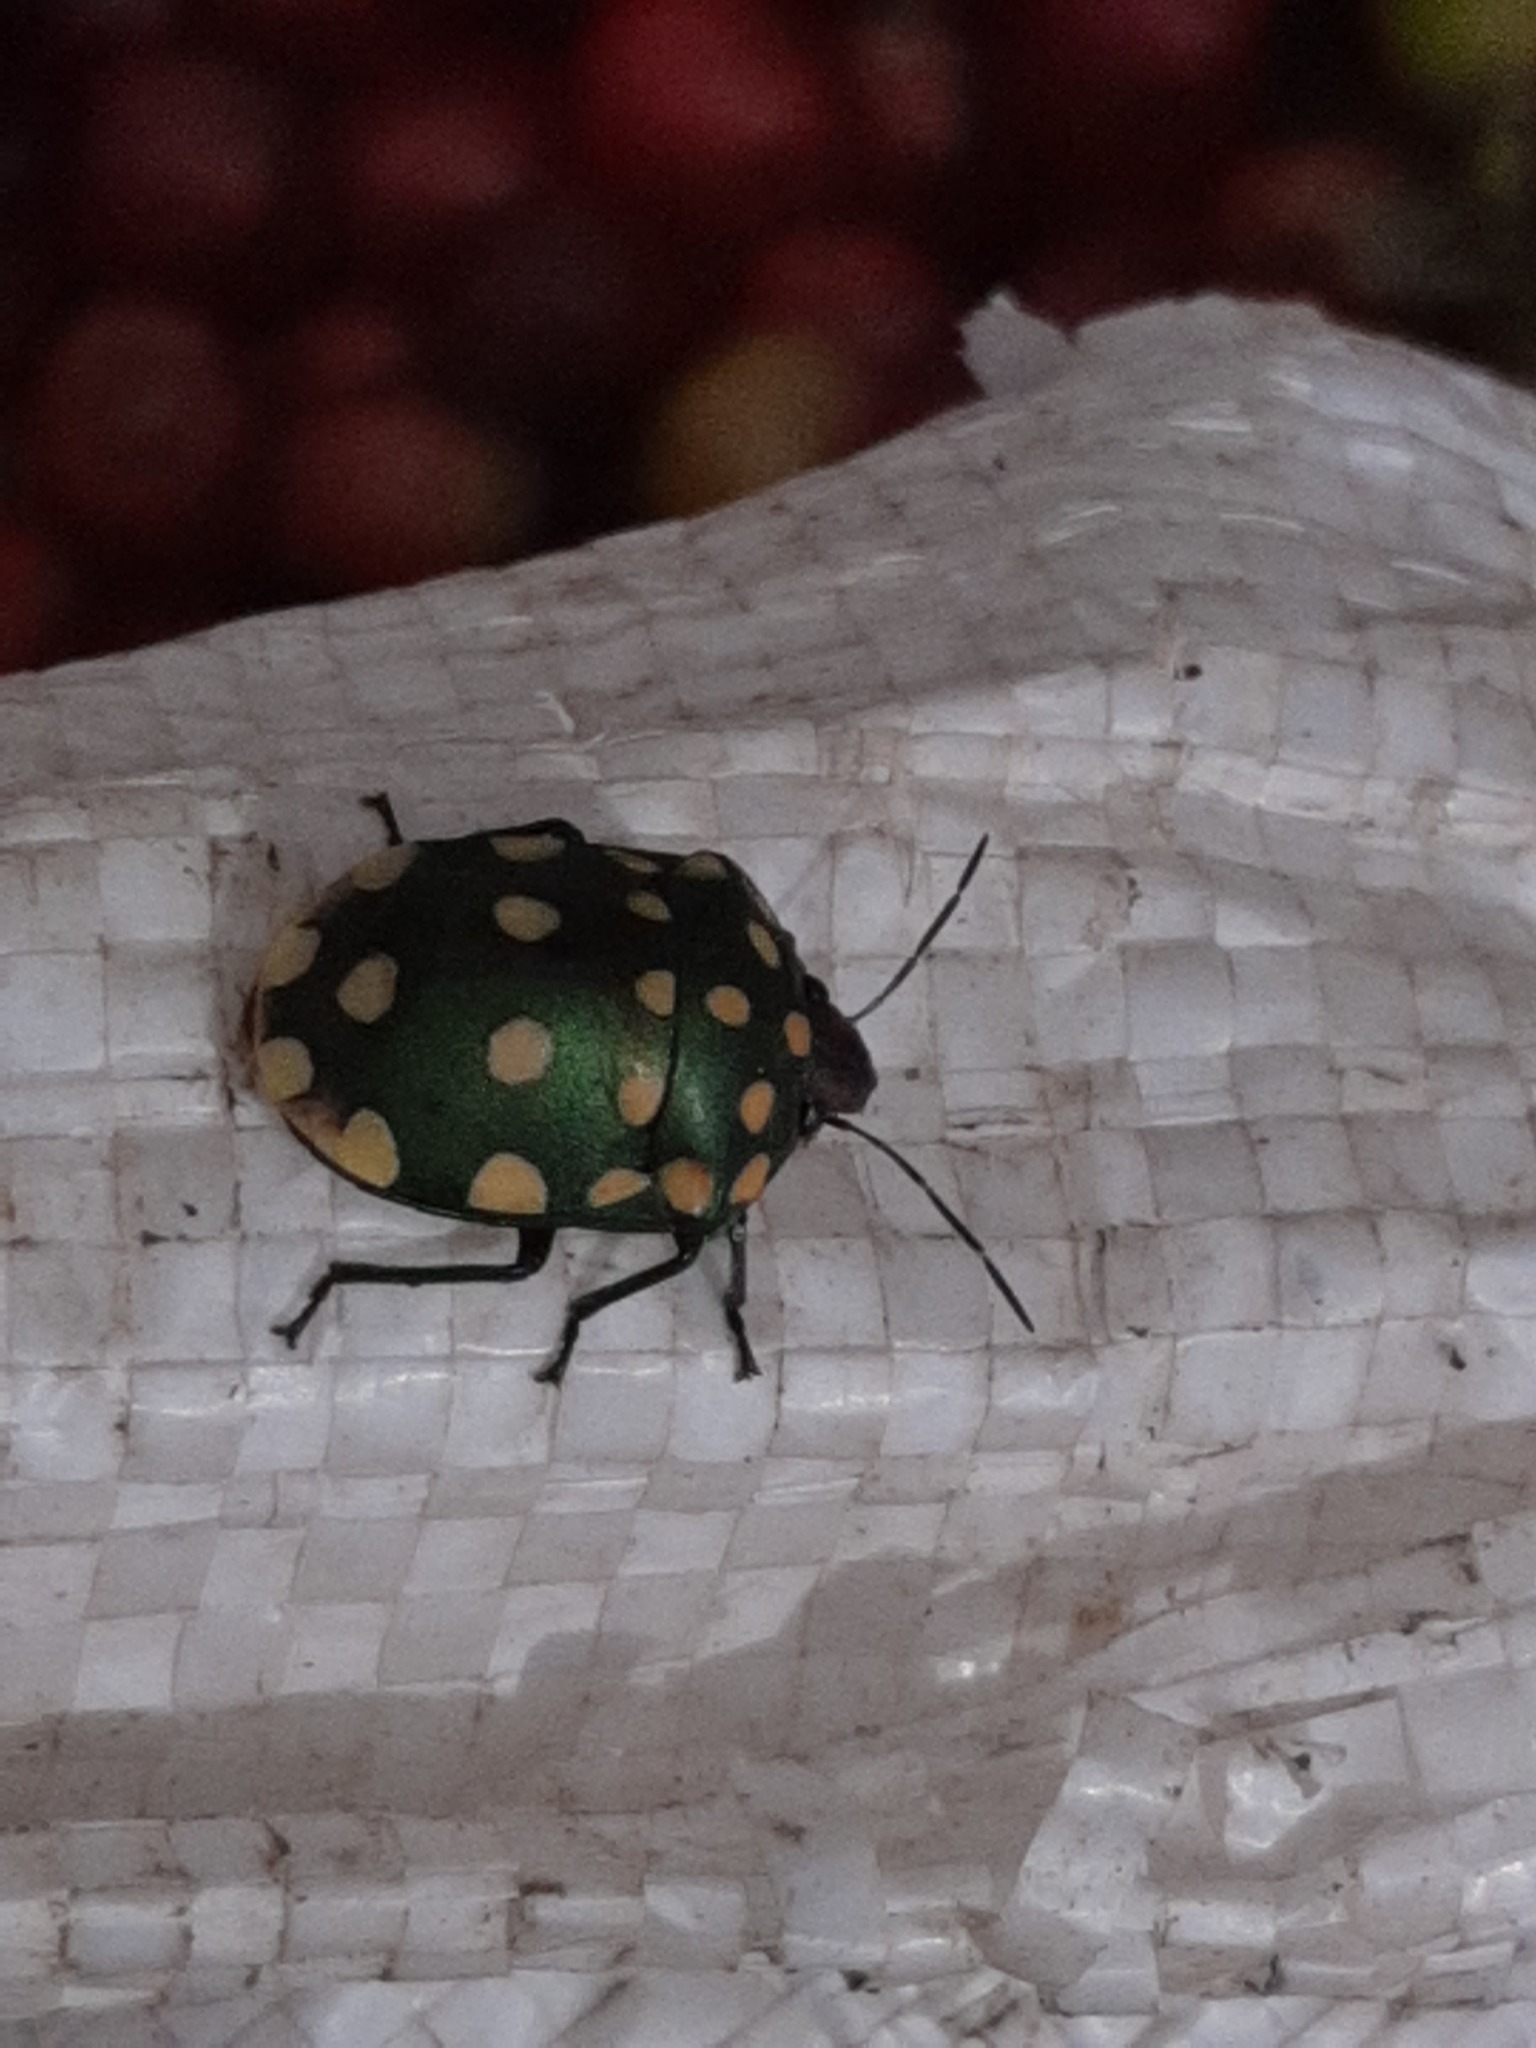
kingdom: Animalia
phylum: Arthropoda
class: Insecta
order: Hemiptera
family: Scutelleridae
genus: Pachycoris
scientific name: Pachycoris torridus
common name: Torrid jewel bug
